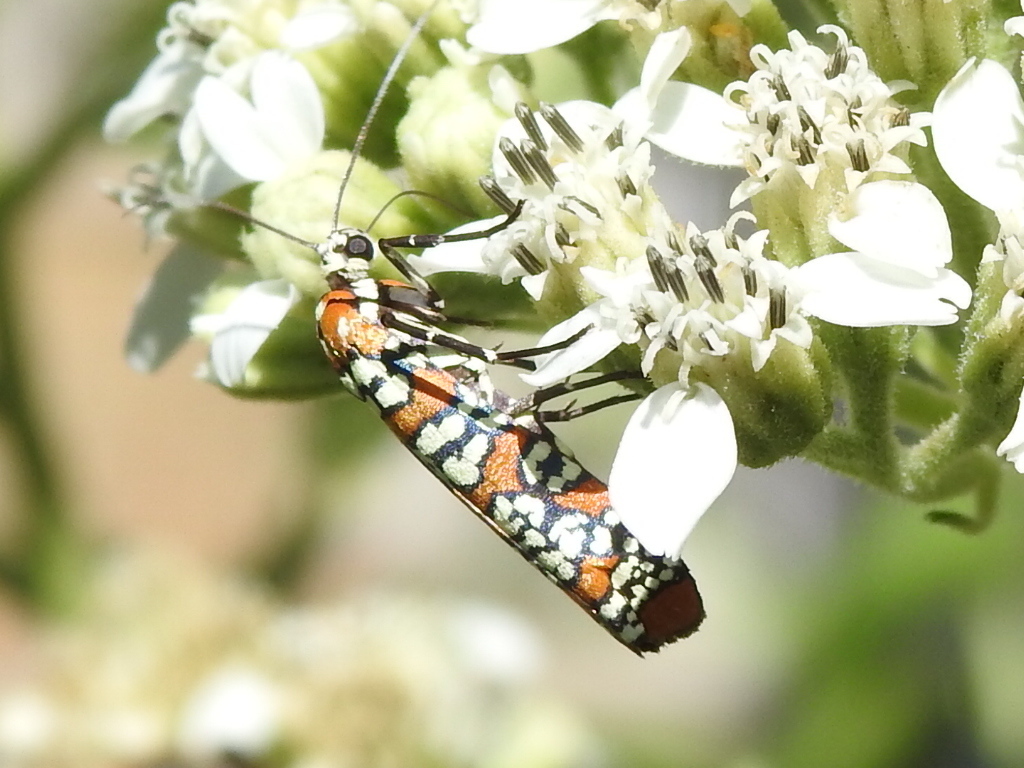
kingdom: Animalia
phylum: Arthropoda
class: Insecta
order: Lepidoptera
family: Attevidae
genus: Atteva
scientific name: Atteva punctella
